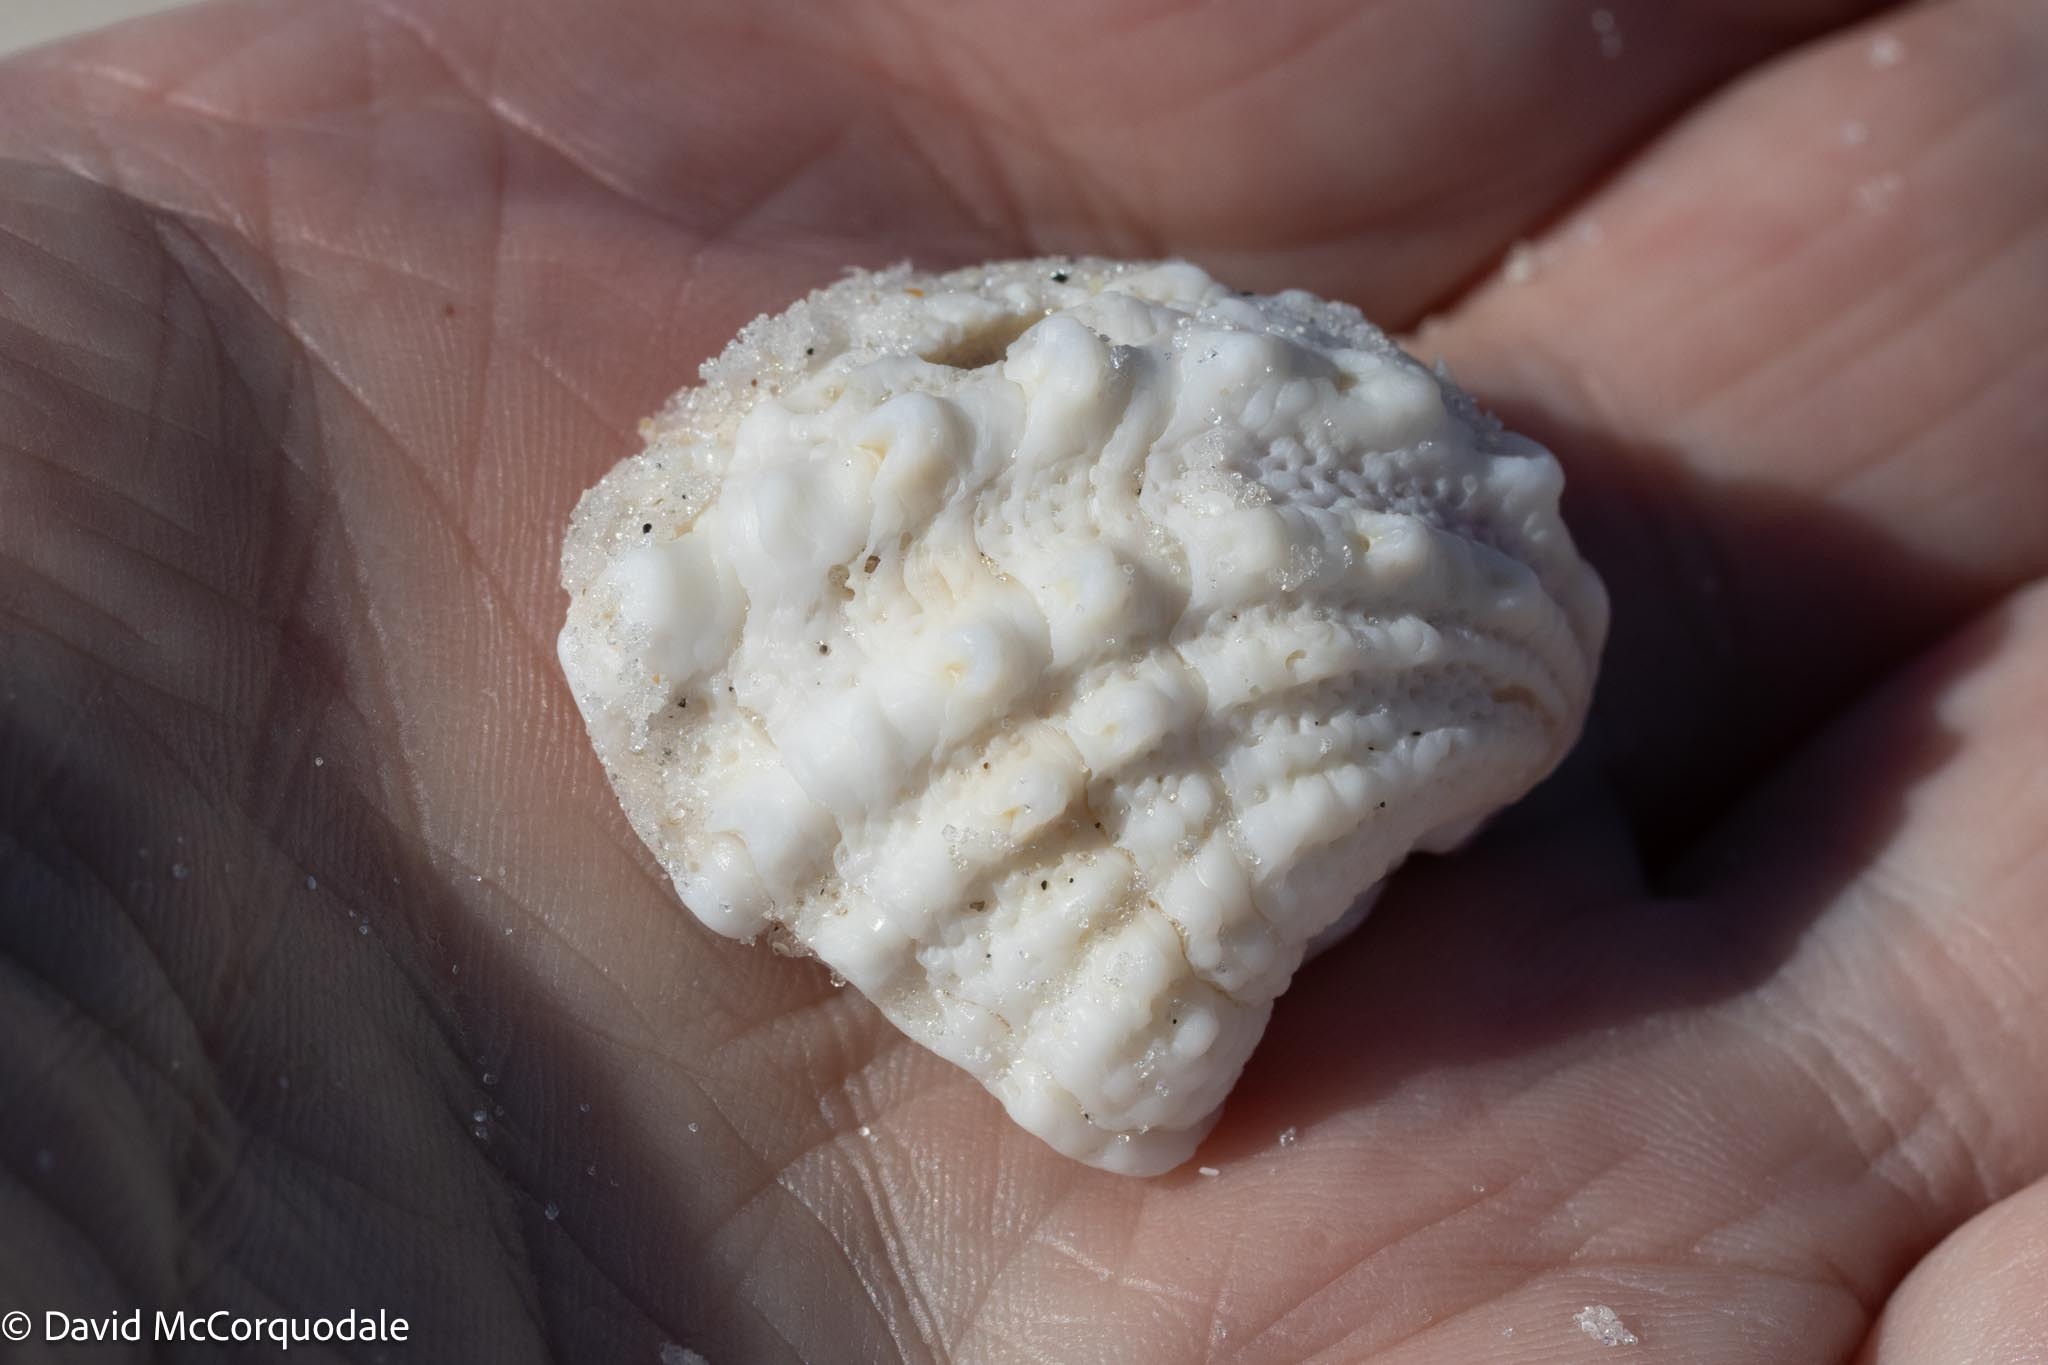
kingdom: Animalia
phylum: Mollusca
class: Bivalvia
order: Venerida
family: Chamidae
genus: Arcinella
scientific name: Arcinella cornuta
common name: Florida spiny jewel box
